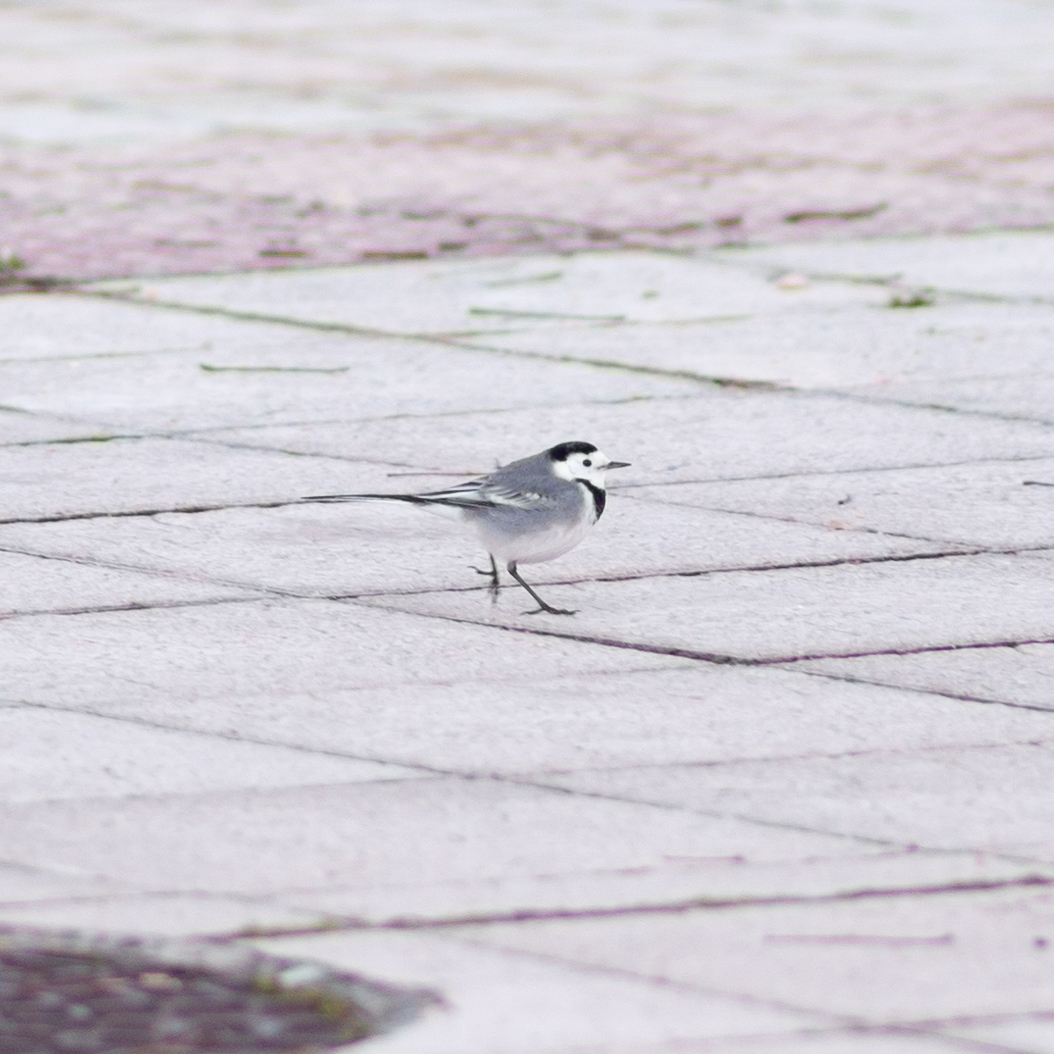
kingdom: Animalia
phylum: Chordata
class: Aves
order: Passeriformes
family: Motacillidae
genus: Motacilla
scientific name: Motacilla alba
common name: White wagtail
